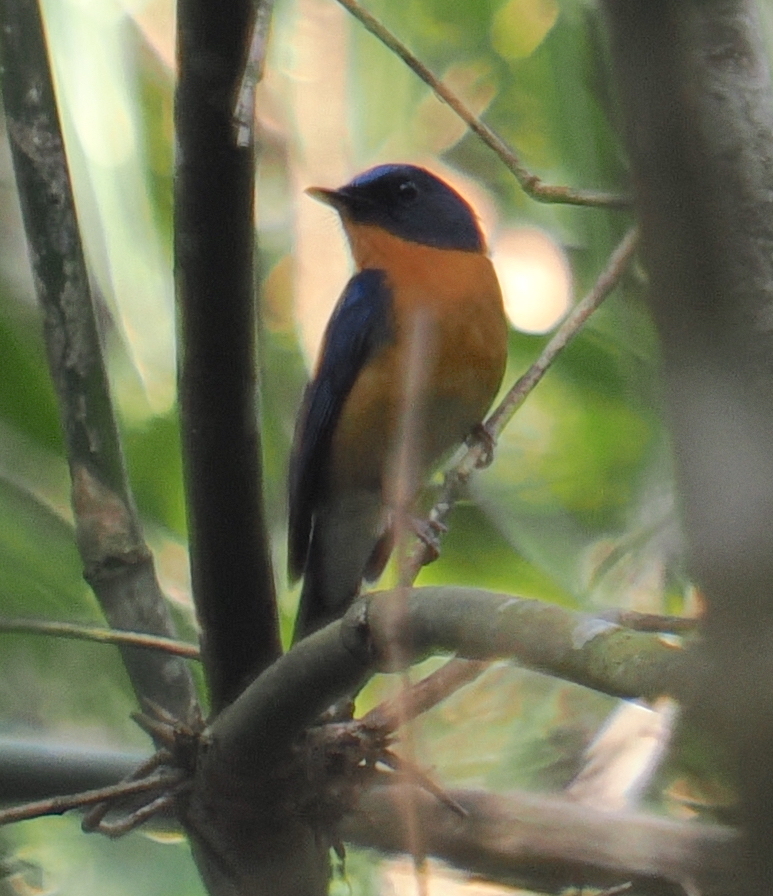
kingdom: Animalia
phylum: Chordata
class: Aves
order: Passeriformes
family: Muscicapidae
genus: Cyornis
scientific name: Cyornis whitei
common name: Hill blue flycatcher
